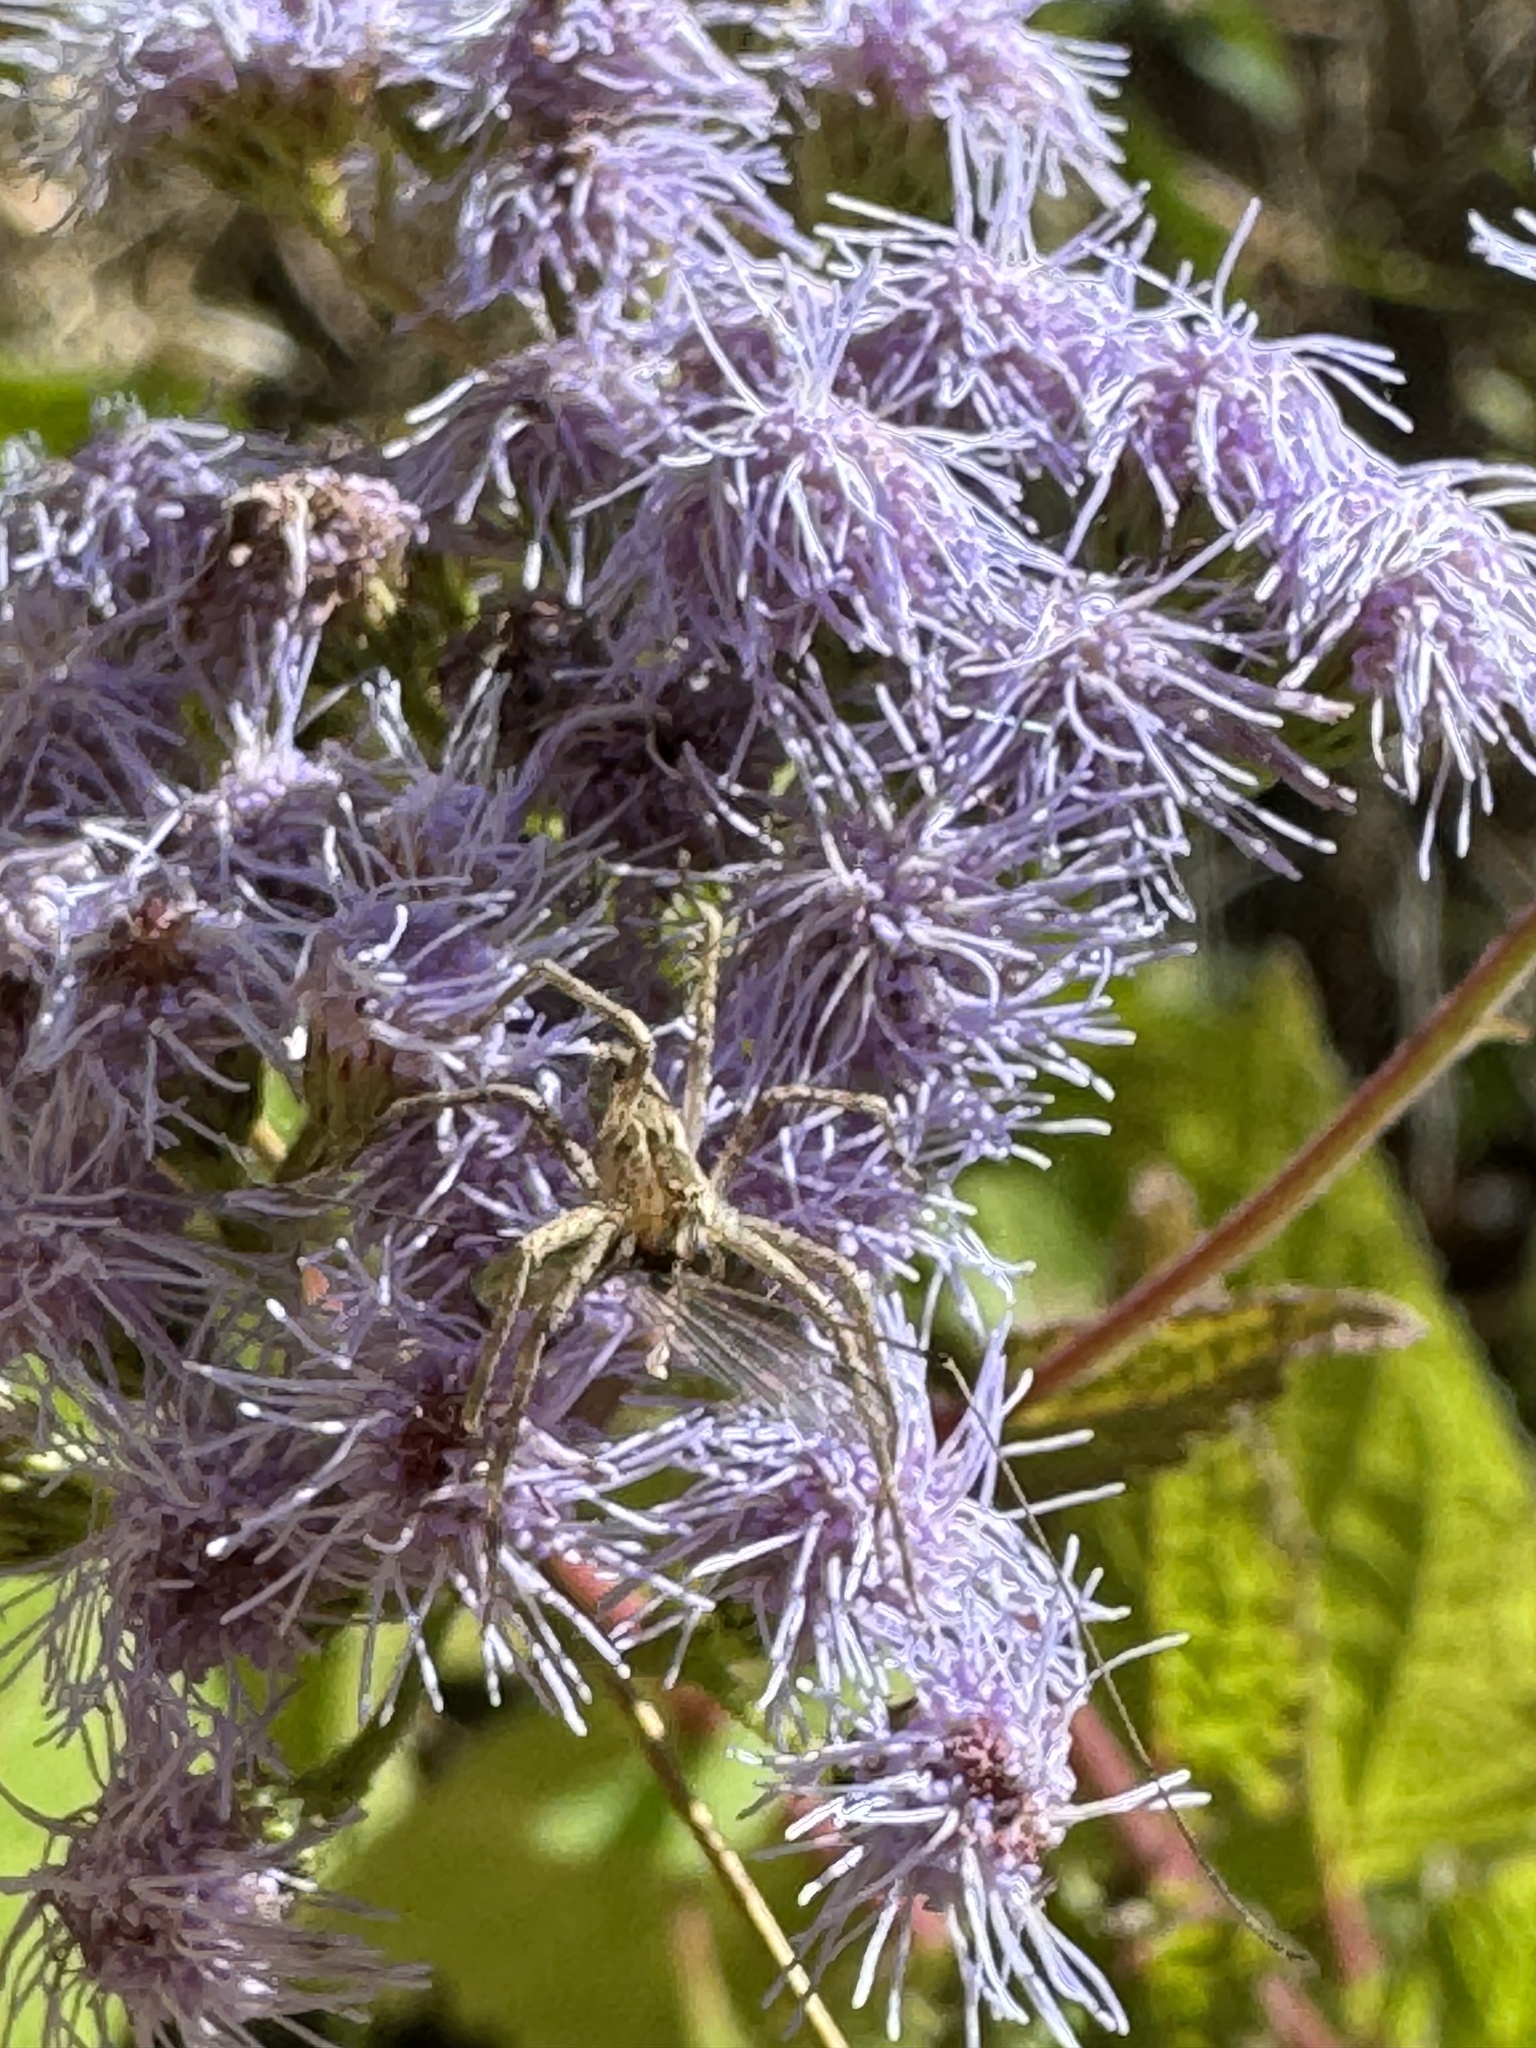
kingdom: Plantae
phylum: Tracheophyta
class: Magnoliopsida
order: Asterales
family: Asteraceae
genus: Conoclinium
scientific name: Conoclinium coelestinum
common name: Blue mistflower
